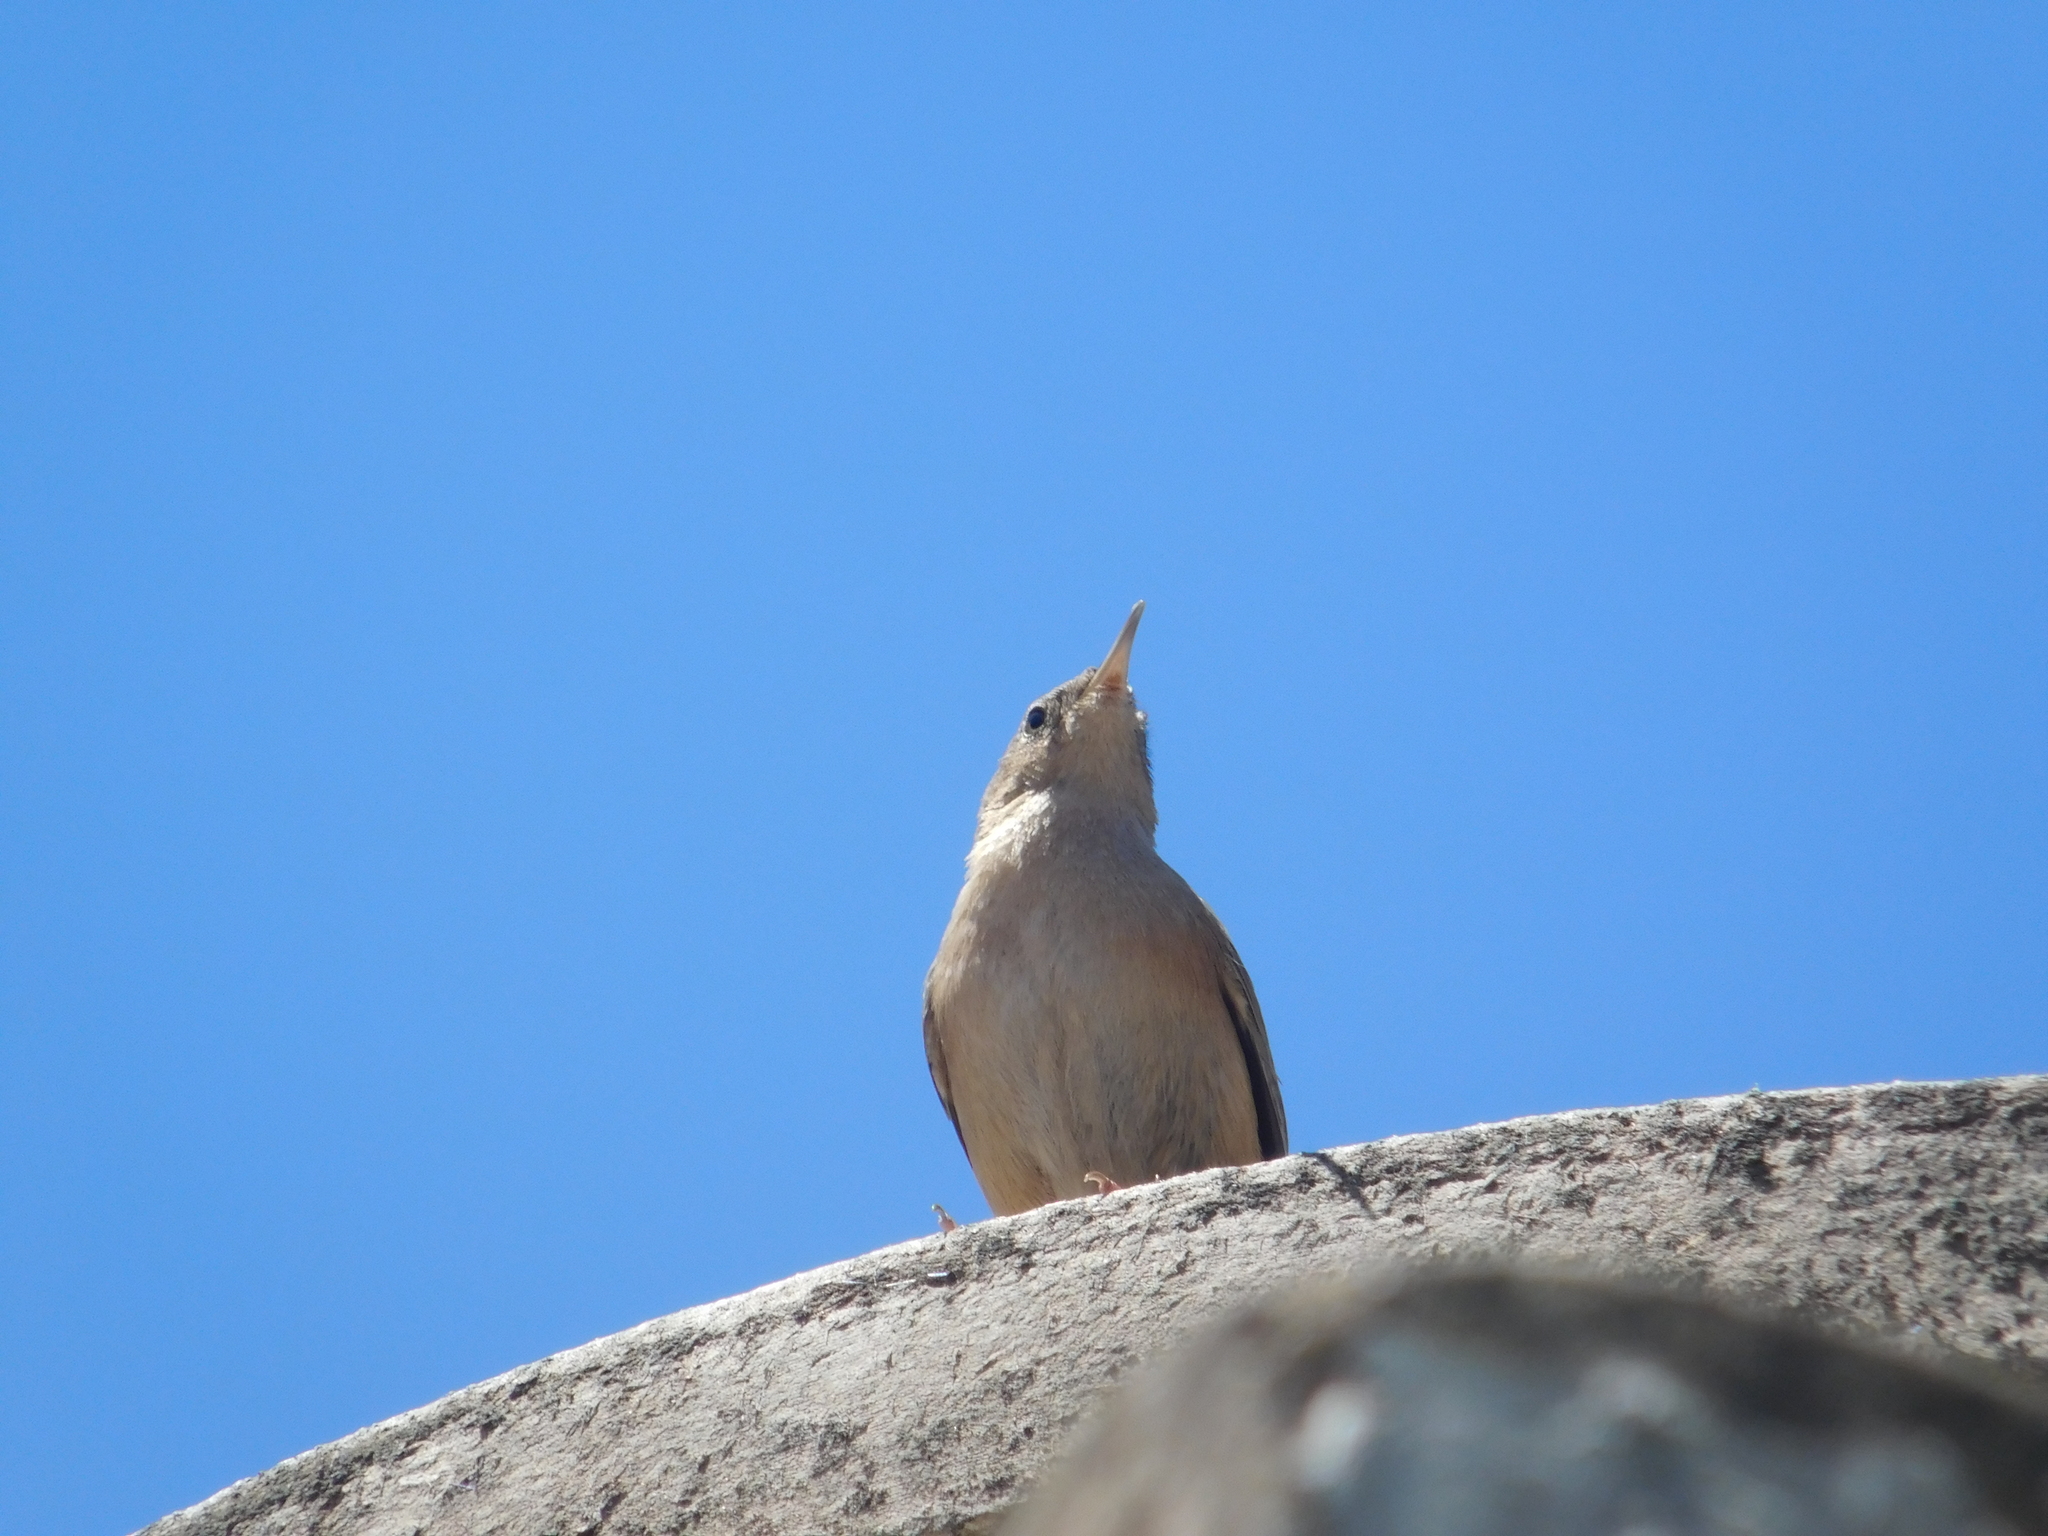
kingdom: Animalia
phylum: Chordata
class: Aves
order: Passeriformes
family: Troglodytidae
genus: Troglodytes
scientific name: Troglodytes aedon
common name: House wren
